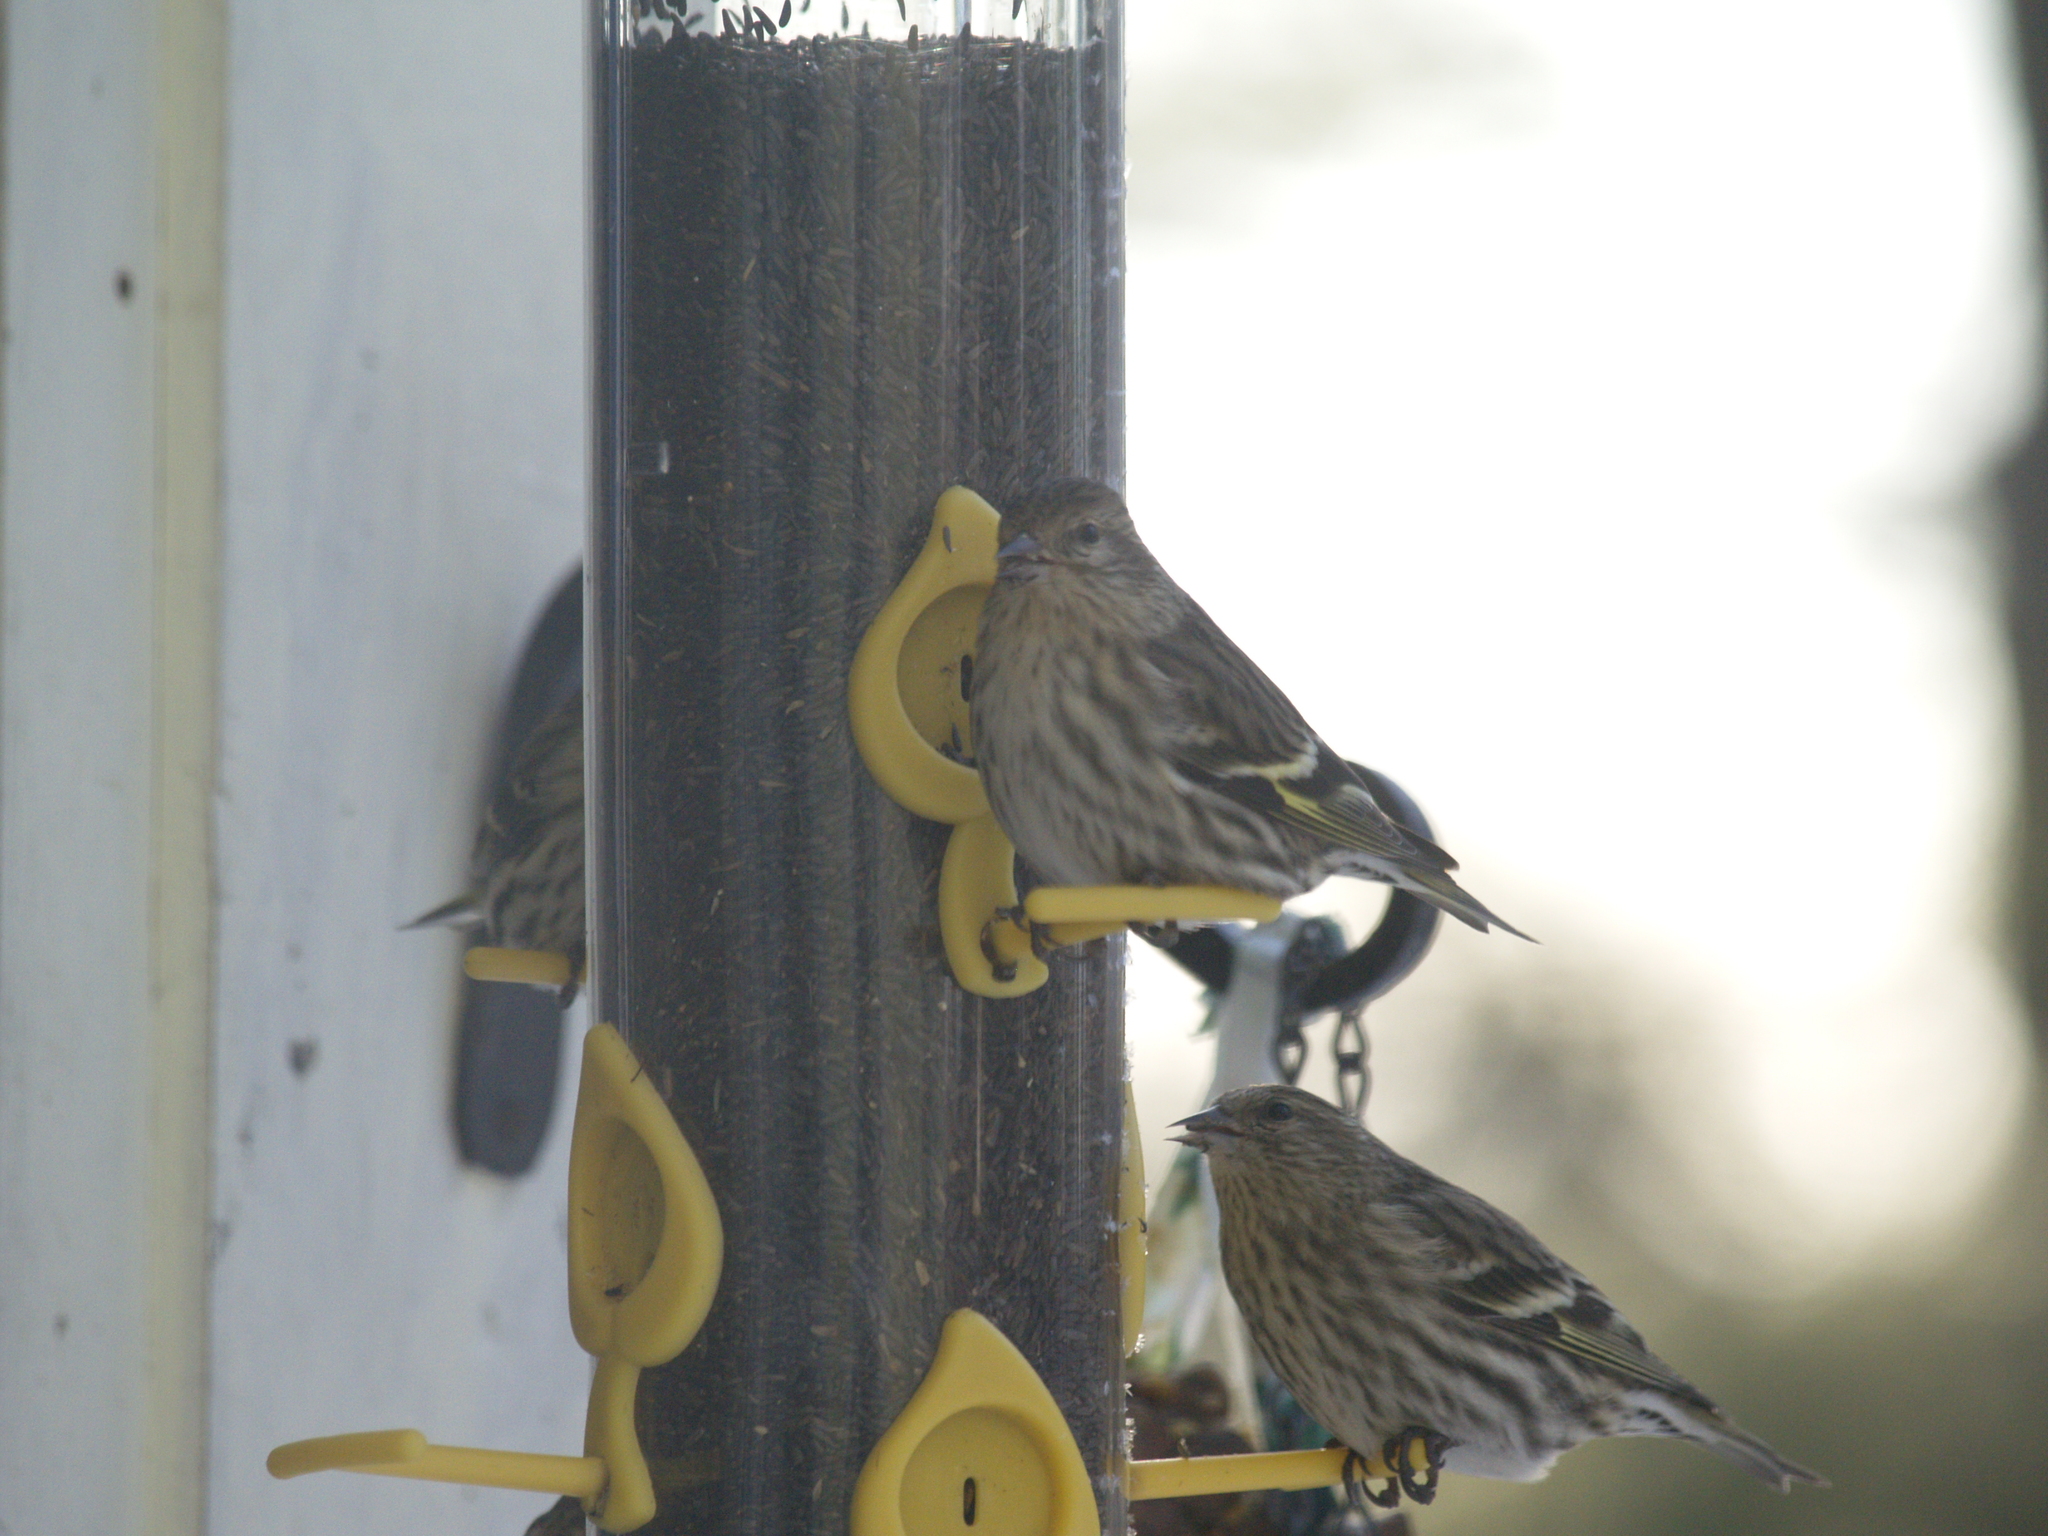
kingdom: Animalia
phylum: Chordata
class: Aves
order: Passeriformes
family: Fringillidae
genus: Spinus
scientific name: Spinus pinus
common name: Pine siskin
